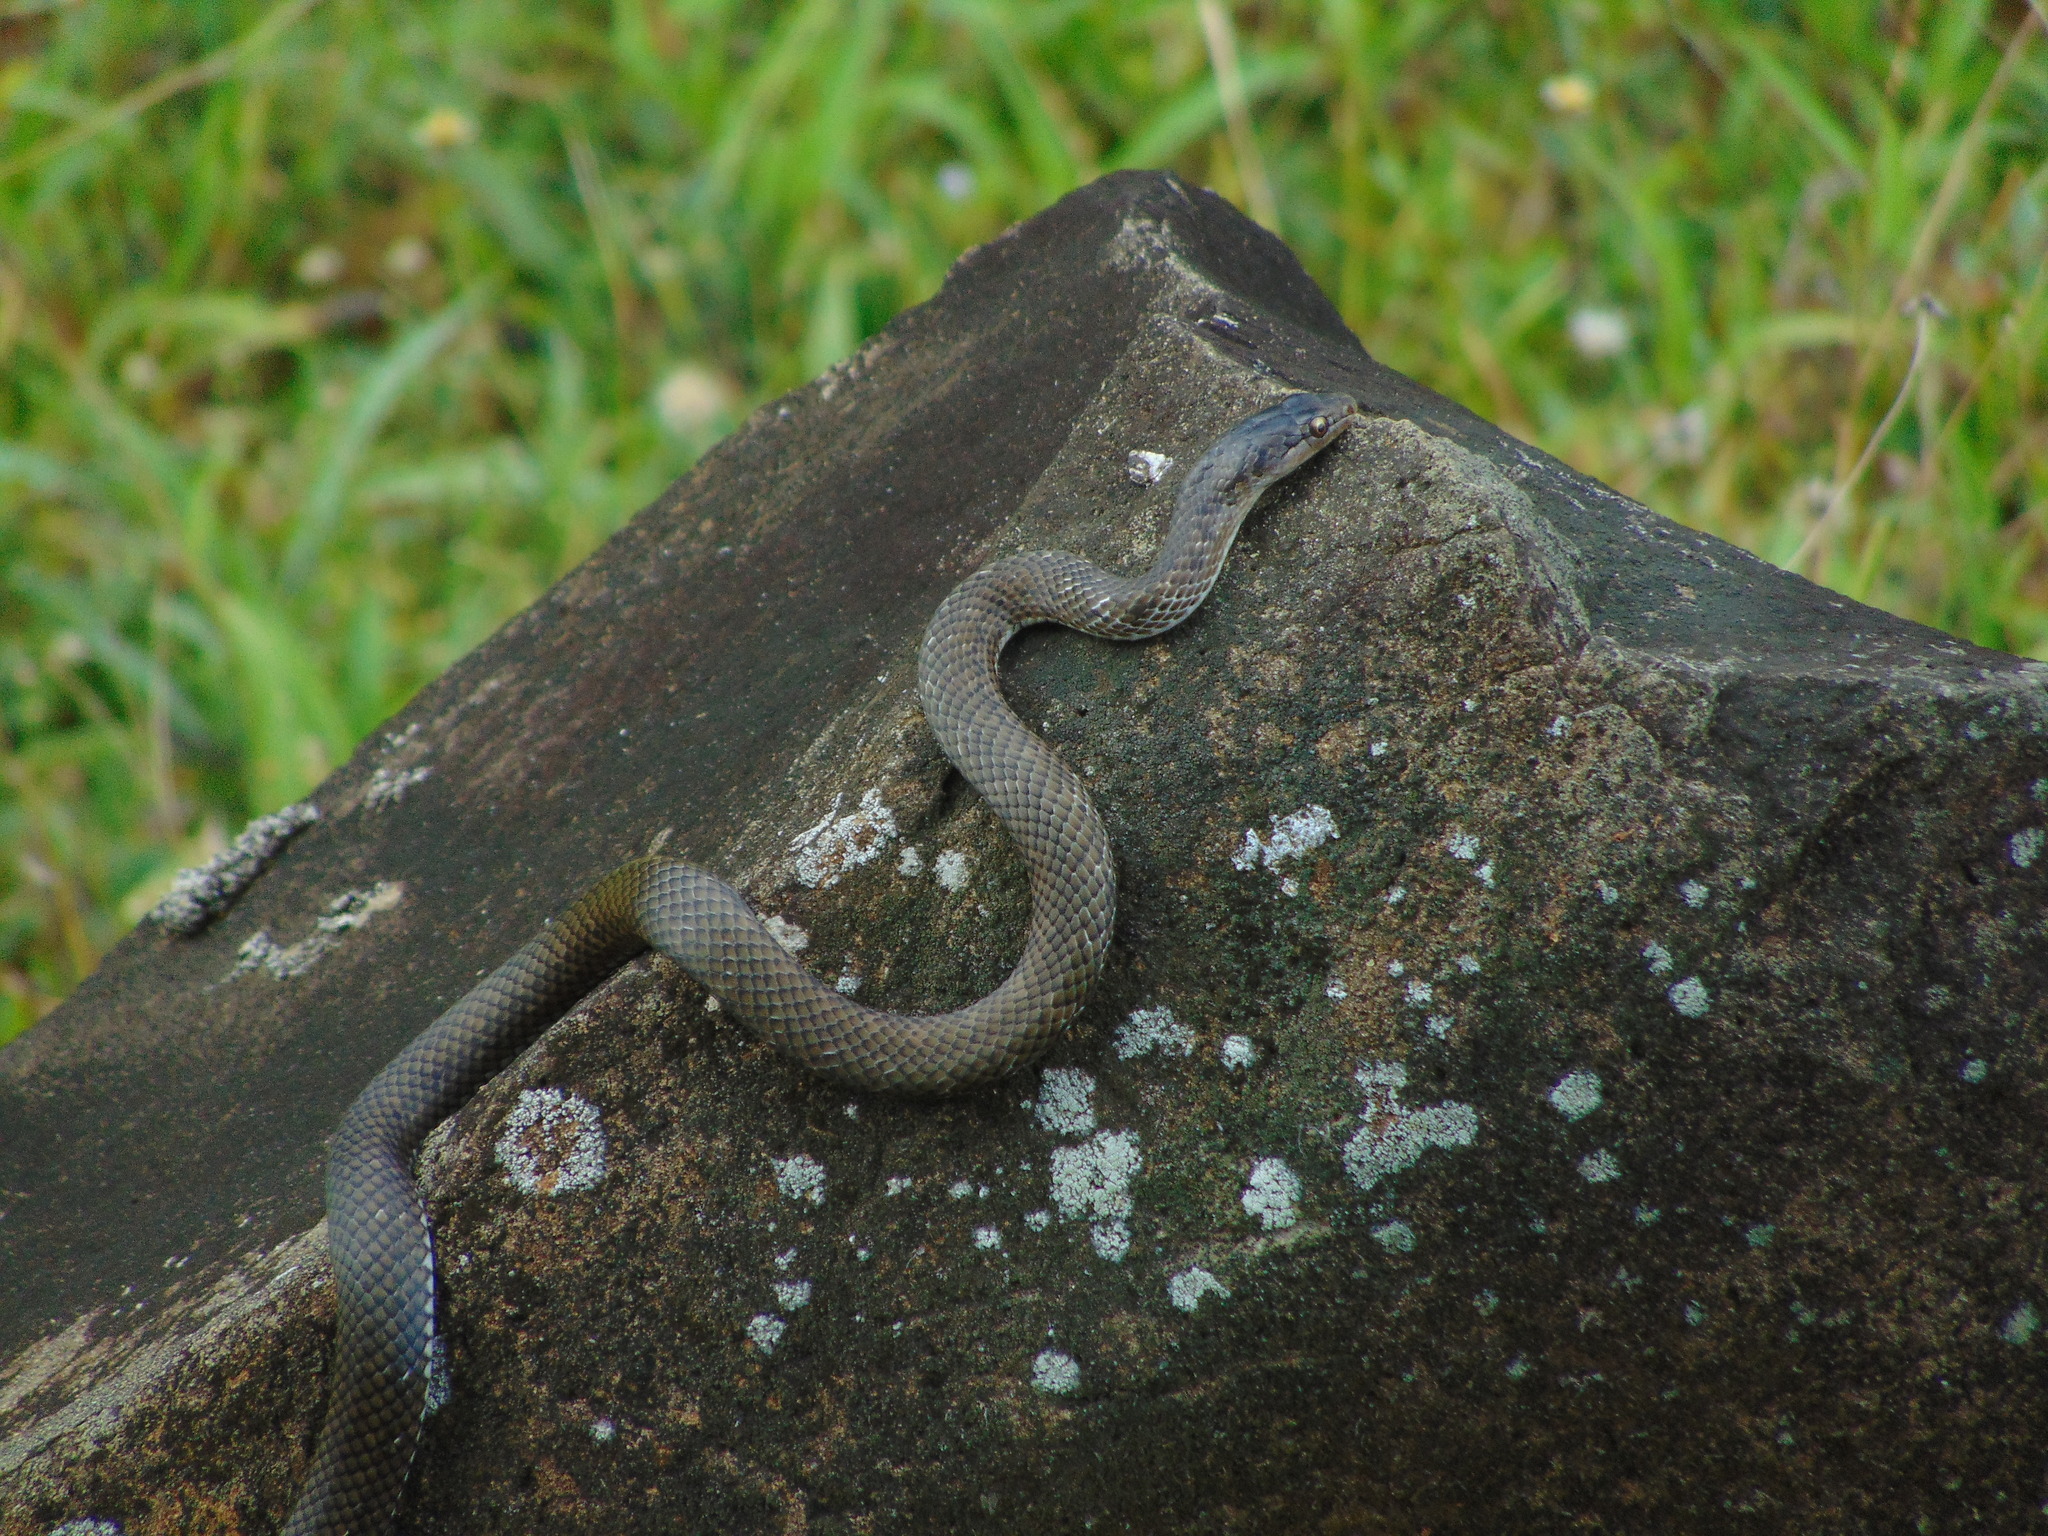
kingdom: Animalia
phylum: Chordata
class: Squamata
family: Colubridae
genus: Borikenophis
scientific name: Borikenophis portoricensis
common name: Puerto rican racer
